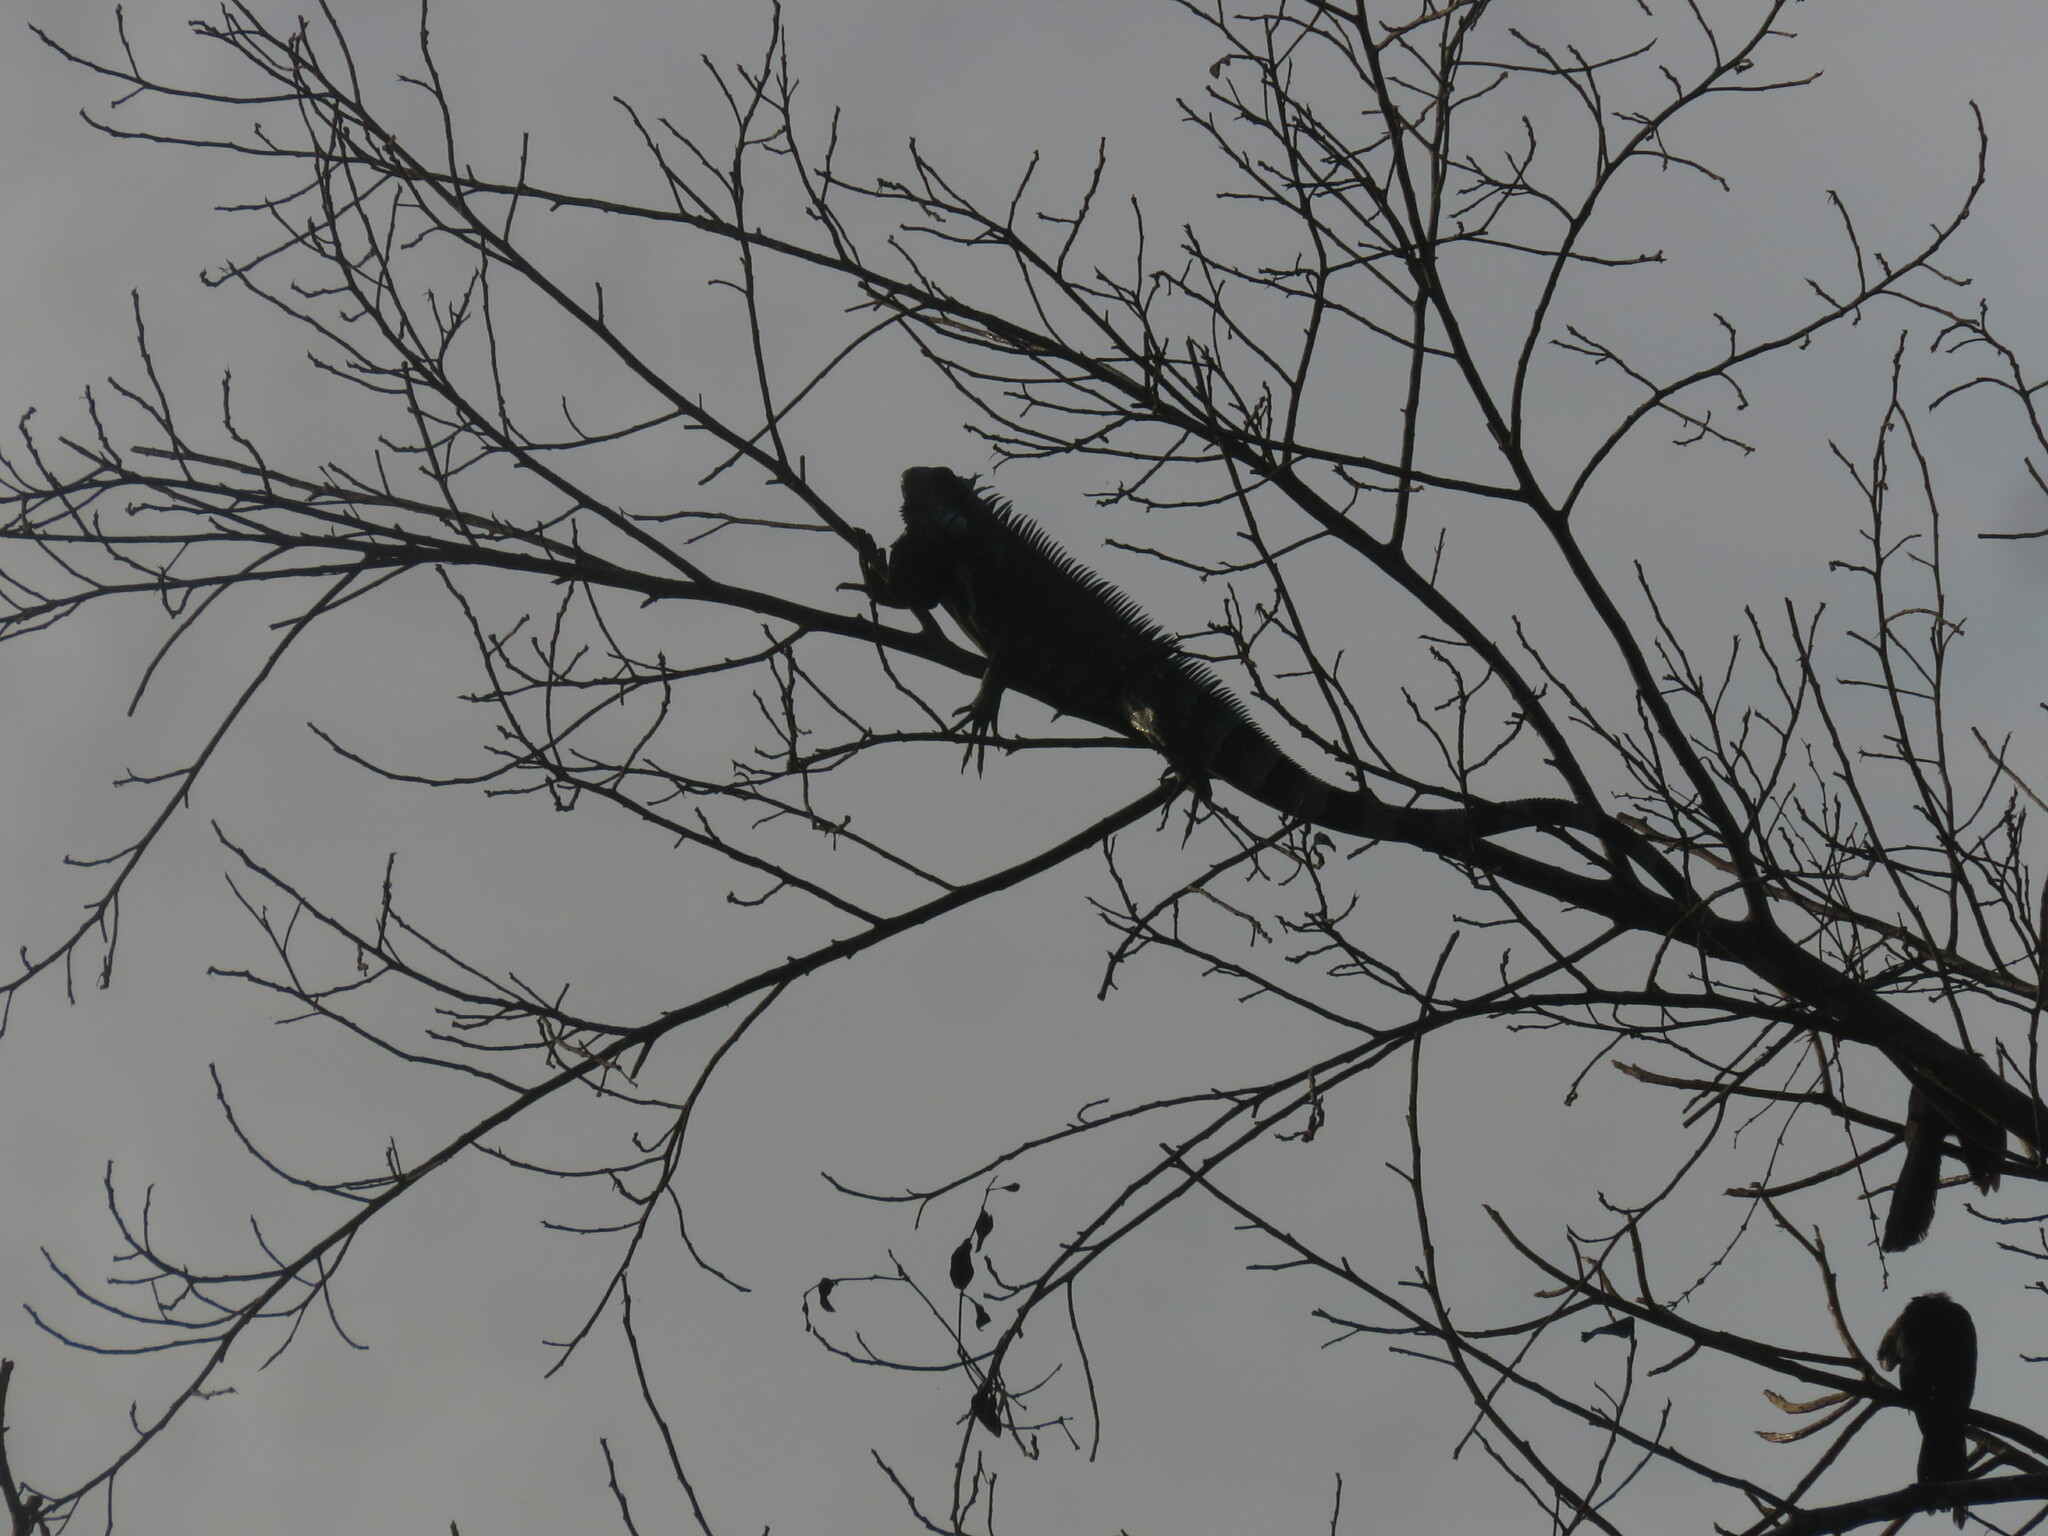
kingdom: Animalia
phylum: Chordata
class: Squamata
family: Iguanidae
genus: Iguana
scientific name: Iguana iguana
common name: Green iguana
